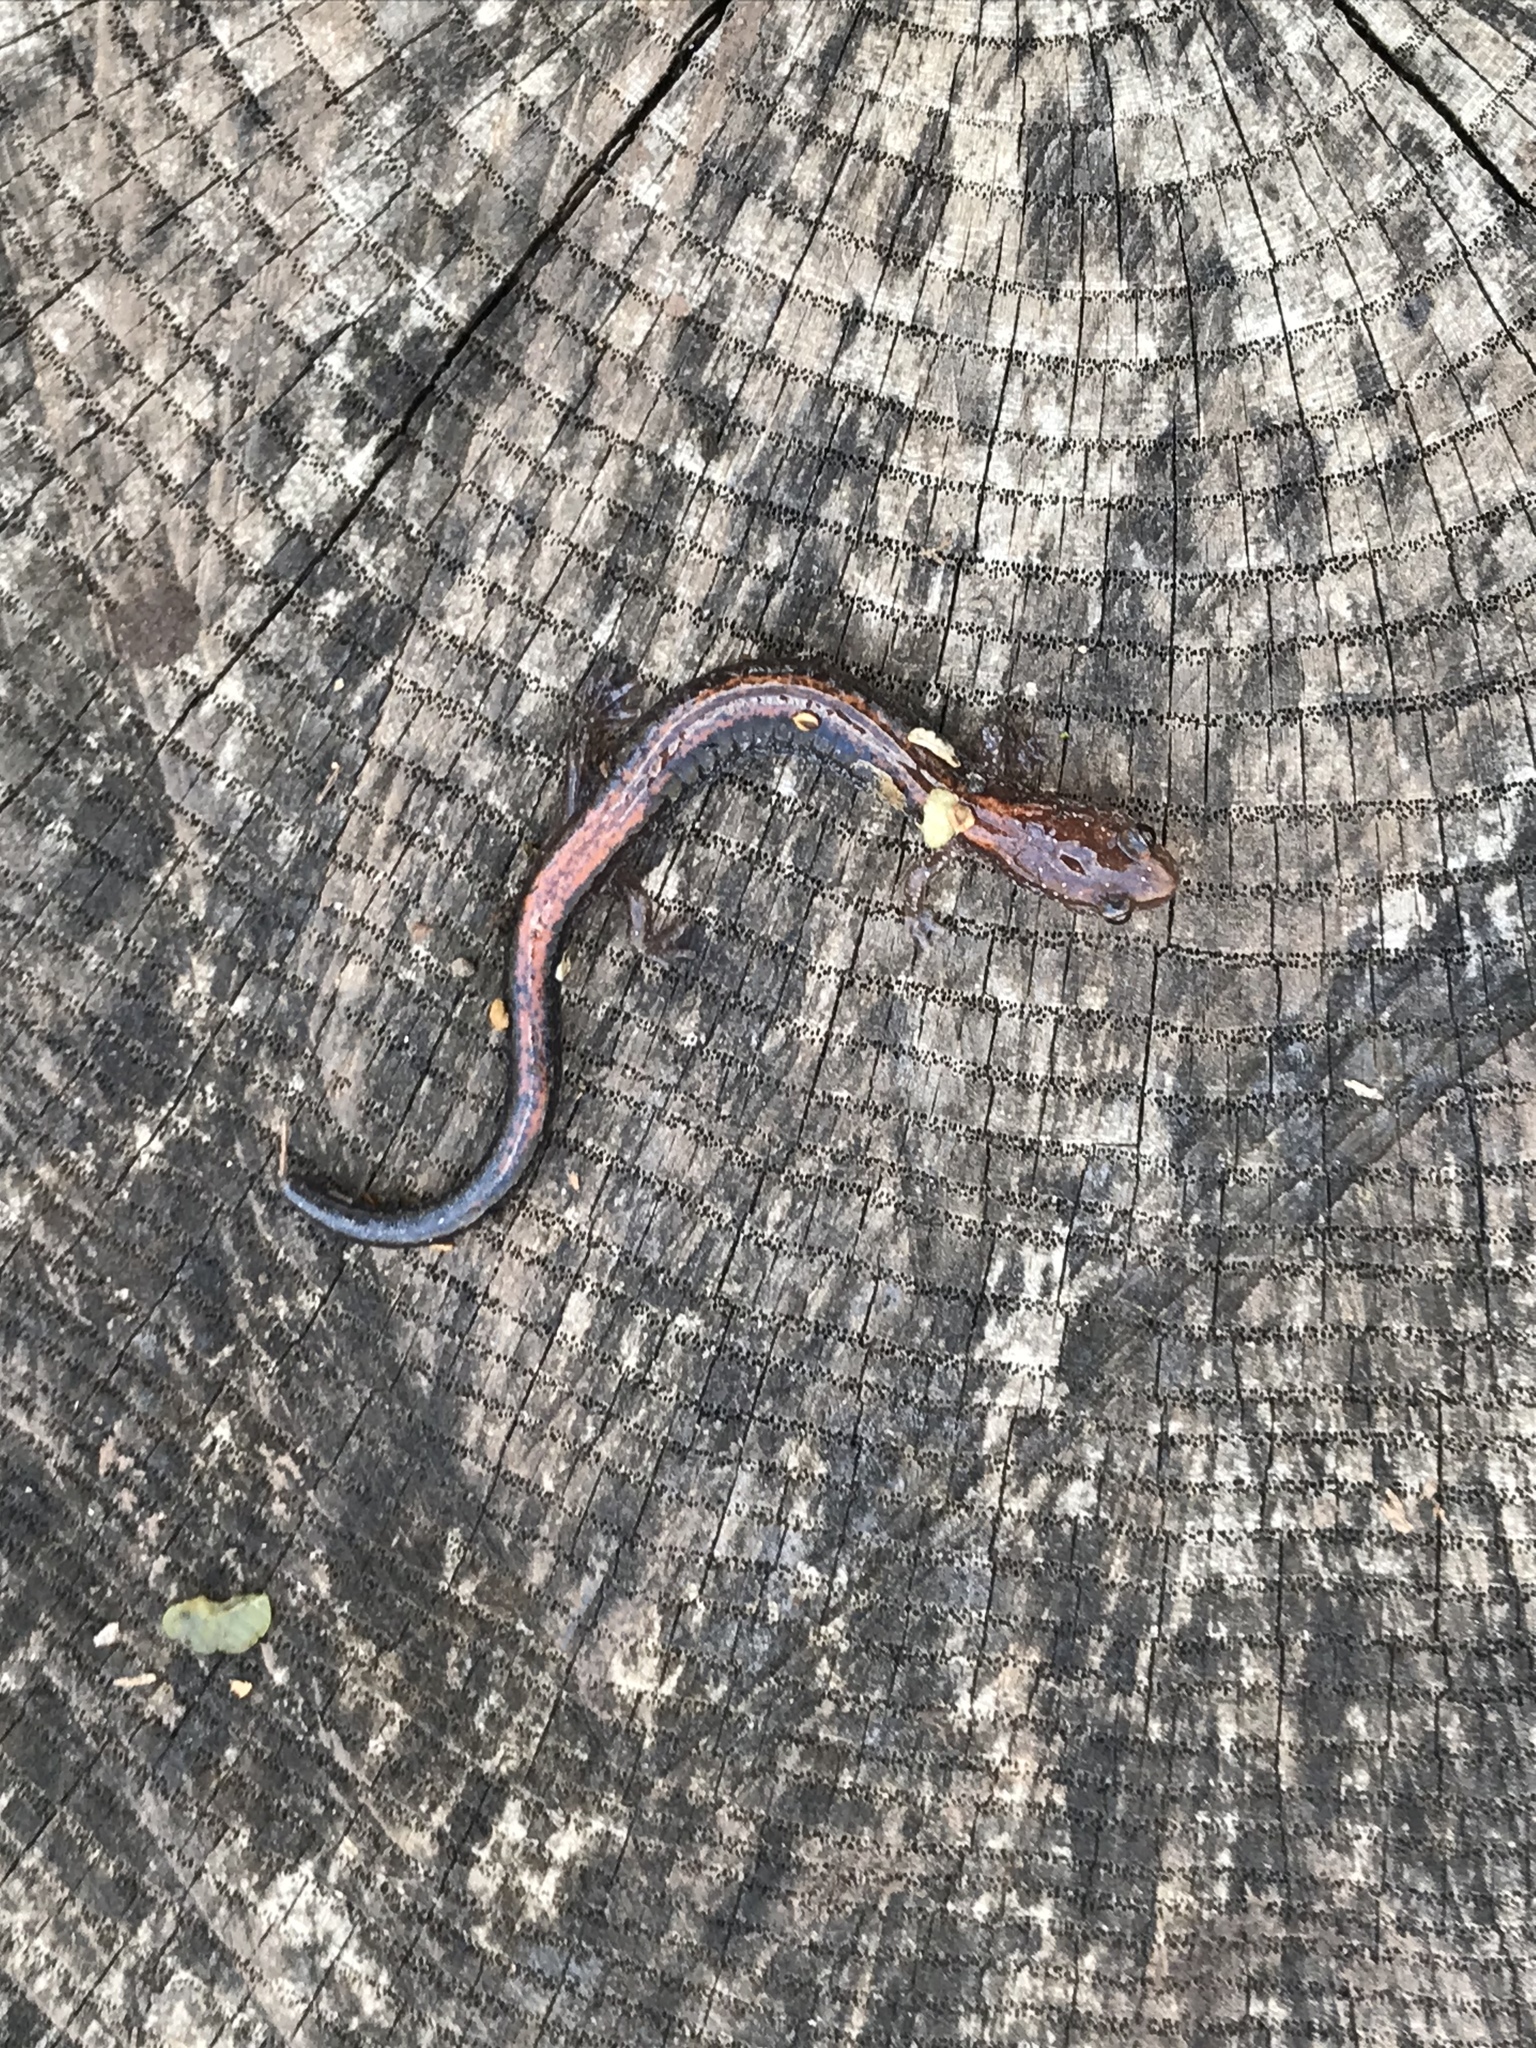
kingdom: Animalia
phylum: Chordata
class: Amphibia
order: Caudata
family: Plethodontidae
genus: Plethodon
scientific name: Plethodon cinereus
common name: Redback salamander
